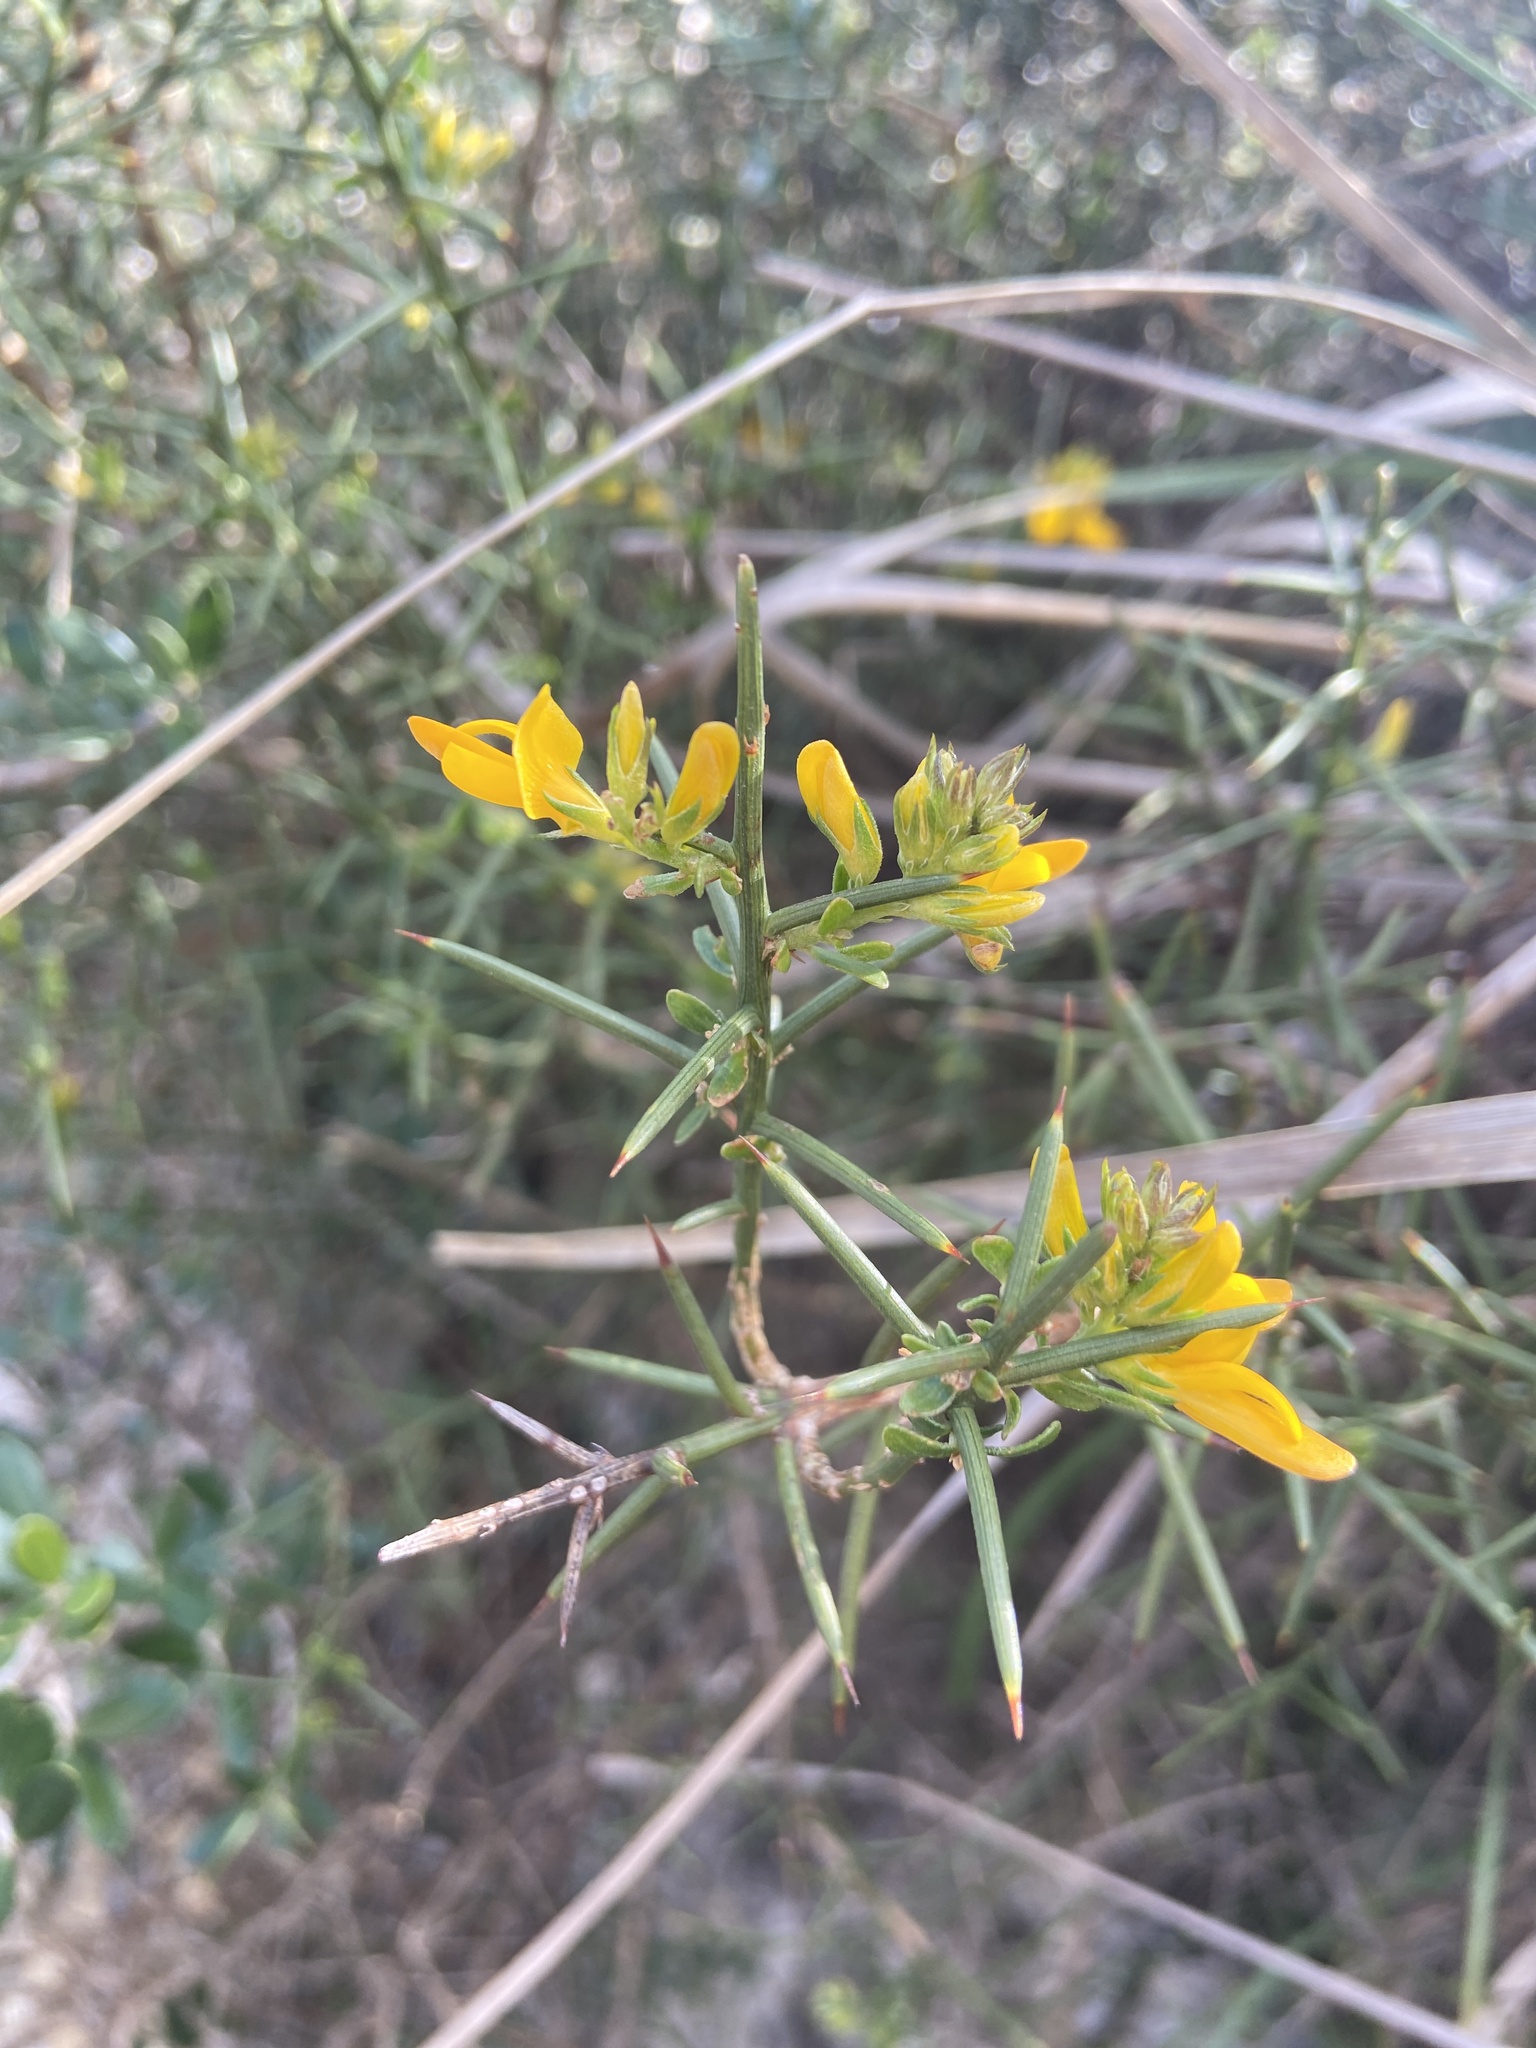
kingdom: Plantae
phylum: Tracheophyta
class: Magnoliopsida
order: Fabales
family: Fabaceae
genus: Genista
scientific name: Genista tricuspidata
